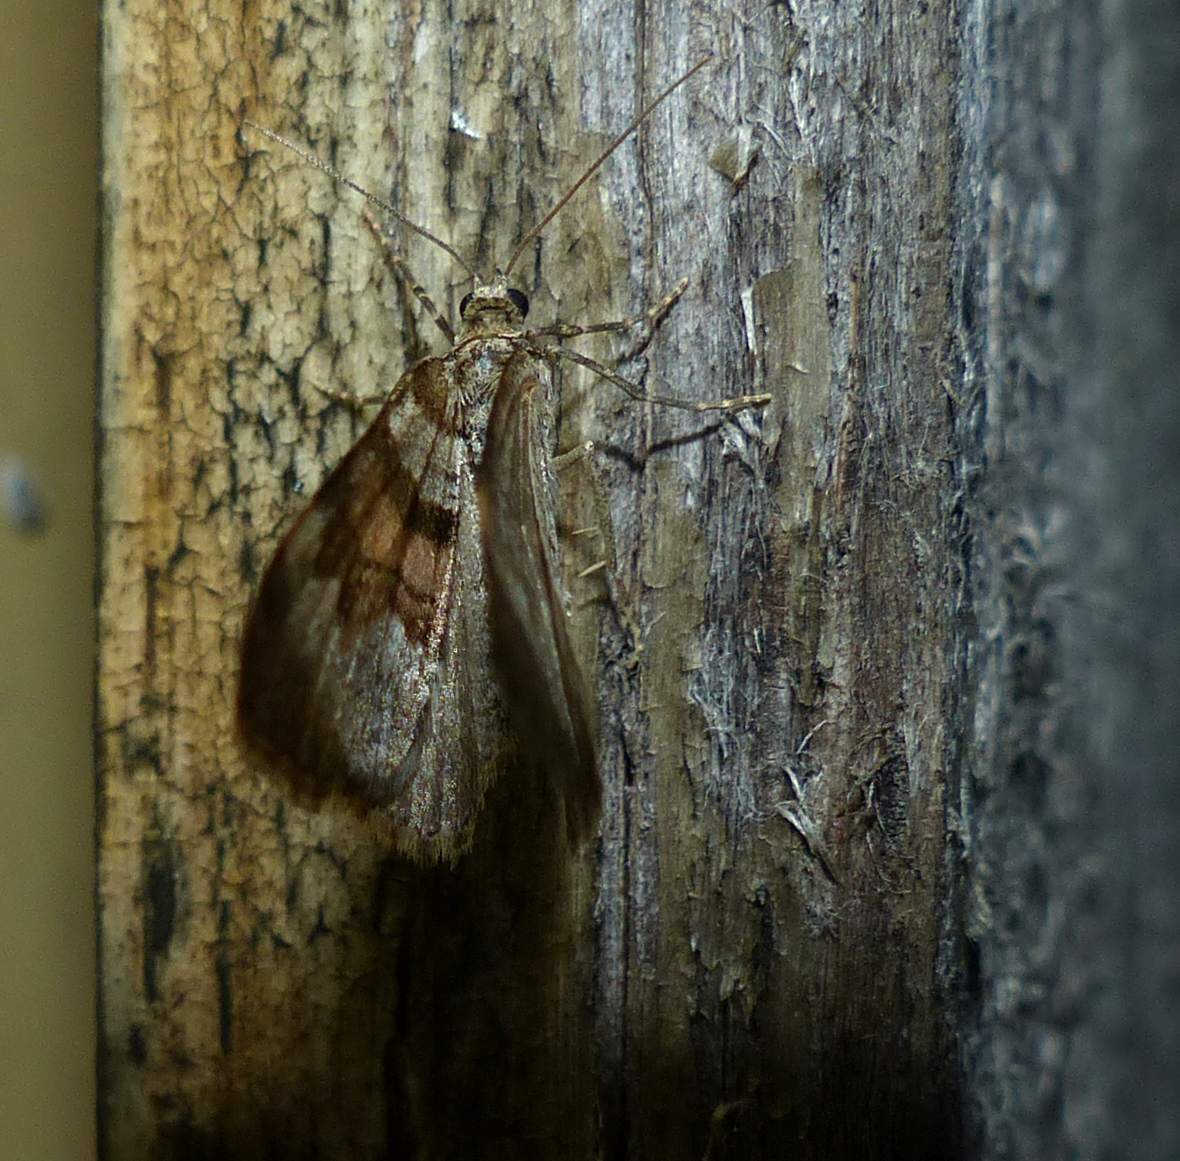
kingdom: Animalia
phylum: Arthropoda
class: Insecta
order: Lepidoptera
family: Geometridae
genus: Xanthorhoe
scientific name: Xanthorhoe labradorensis
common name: Labrador carpet
